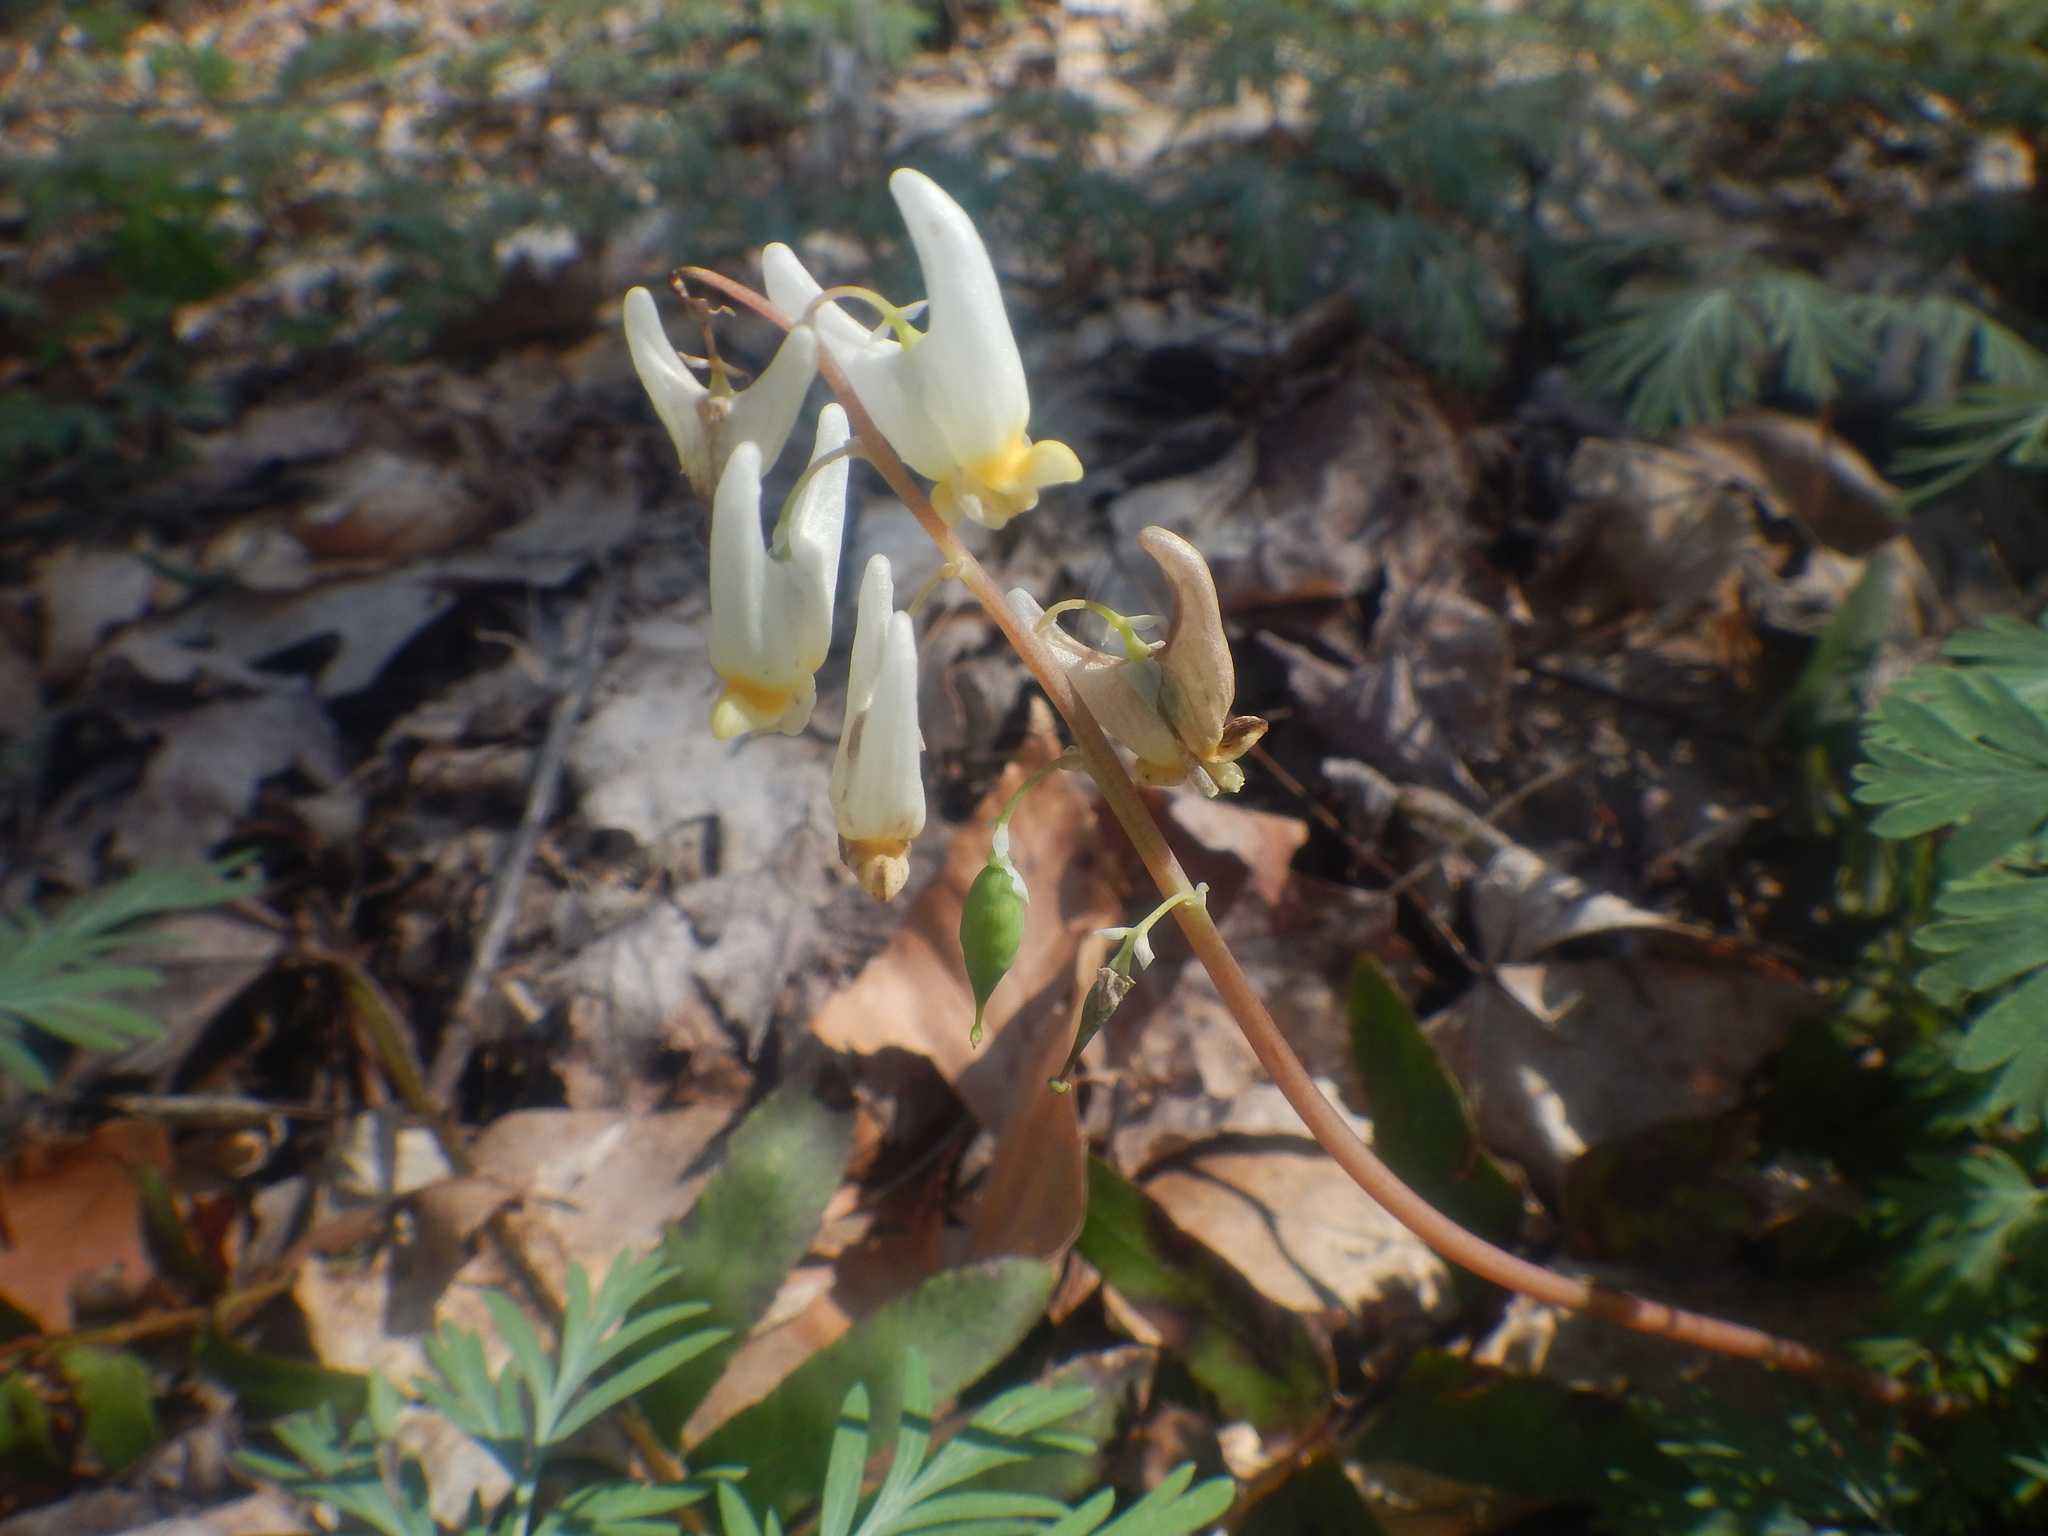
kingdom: Plantae
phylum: Tracheophyta
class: Magnoliopsida
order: Ranunculales
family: Papaveraceae
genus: Dicentra
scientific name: Dicentra cucullaria
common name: Dutchman's breeches
